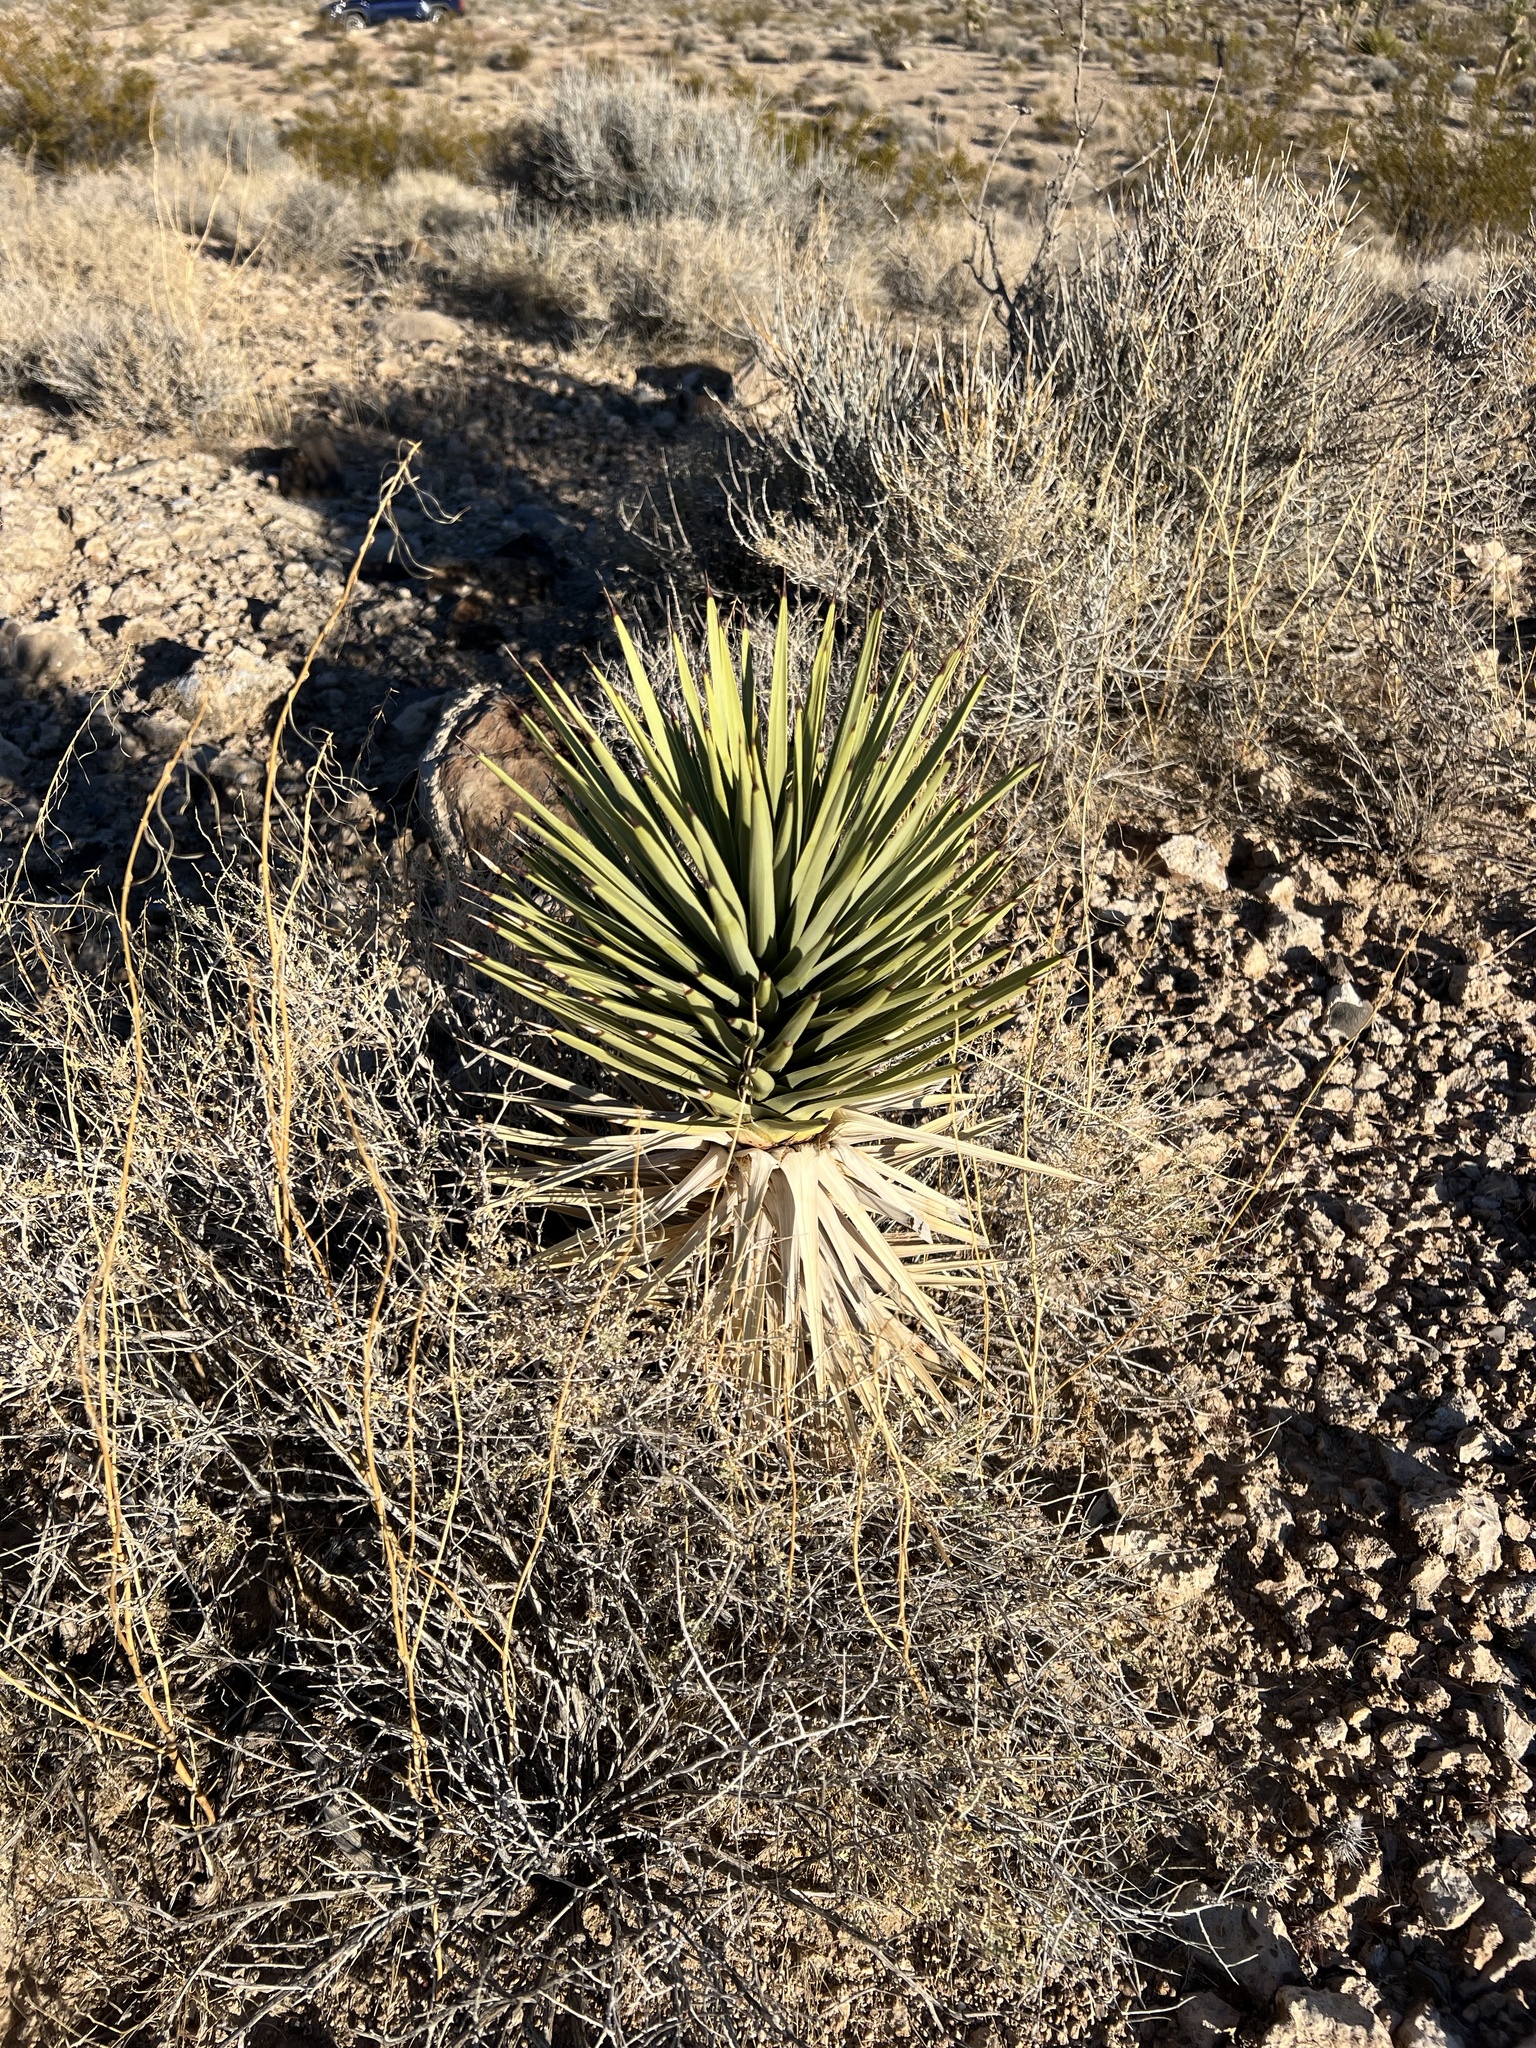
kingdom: Plantae
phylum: Tracheophyta
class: Liliopsida
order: Asparagales
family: Asparagaceae
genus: Yucca
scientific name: Yucca brevifolia
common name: Joshua tree
